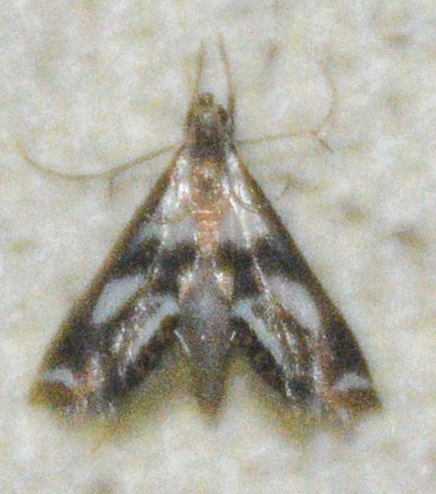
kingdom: Animalia
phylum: Arthropoda
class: Insecta
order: Lepidoptera
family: Crambidae
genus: Chrysendeton
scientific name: Chrysendeton imitabilis
